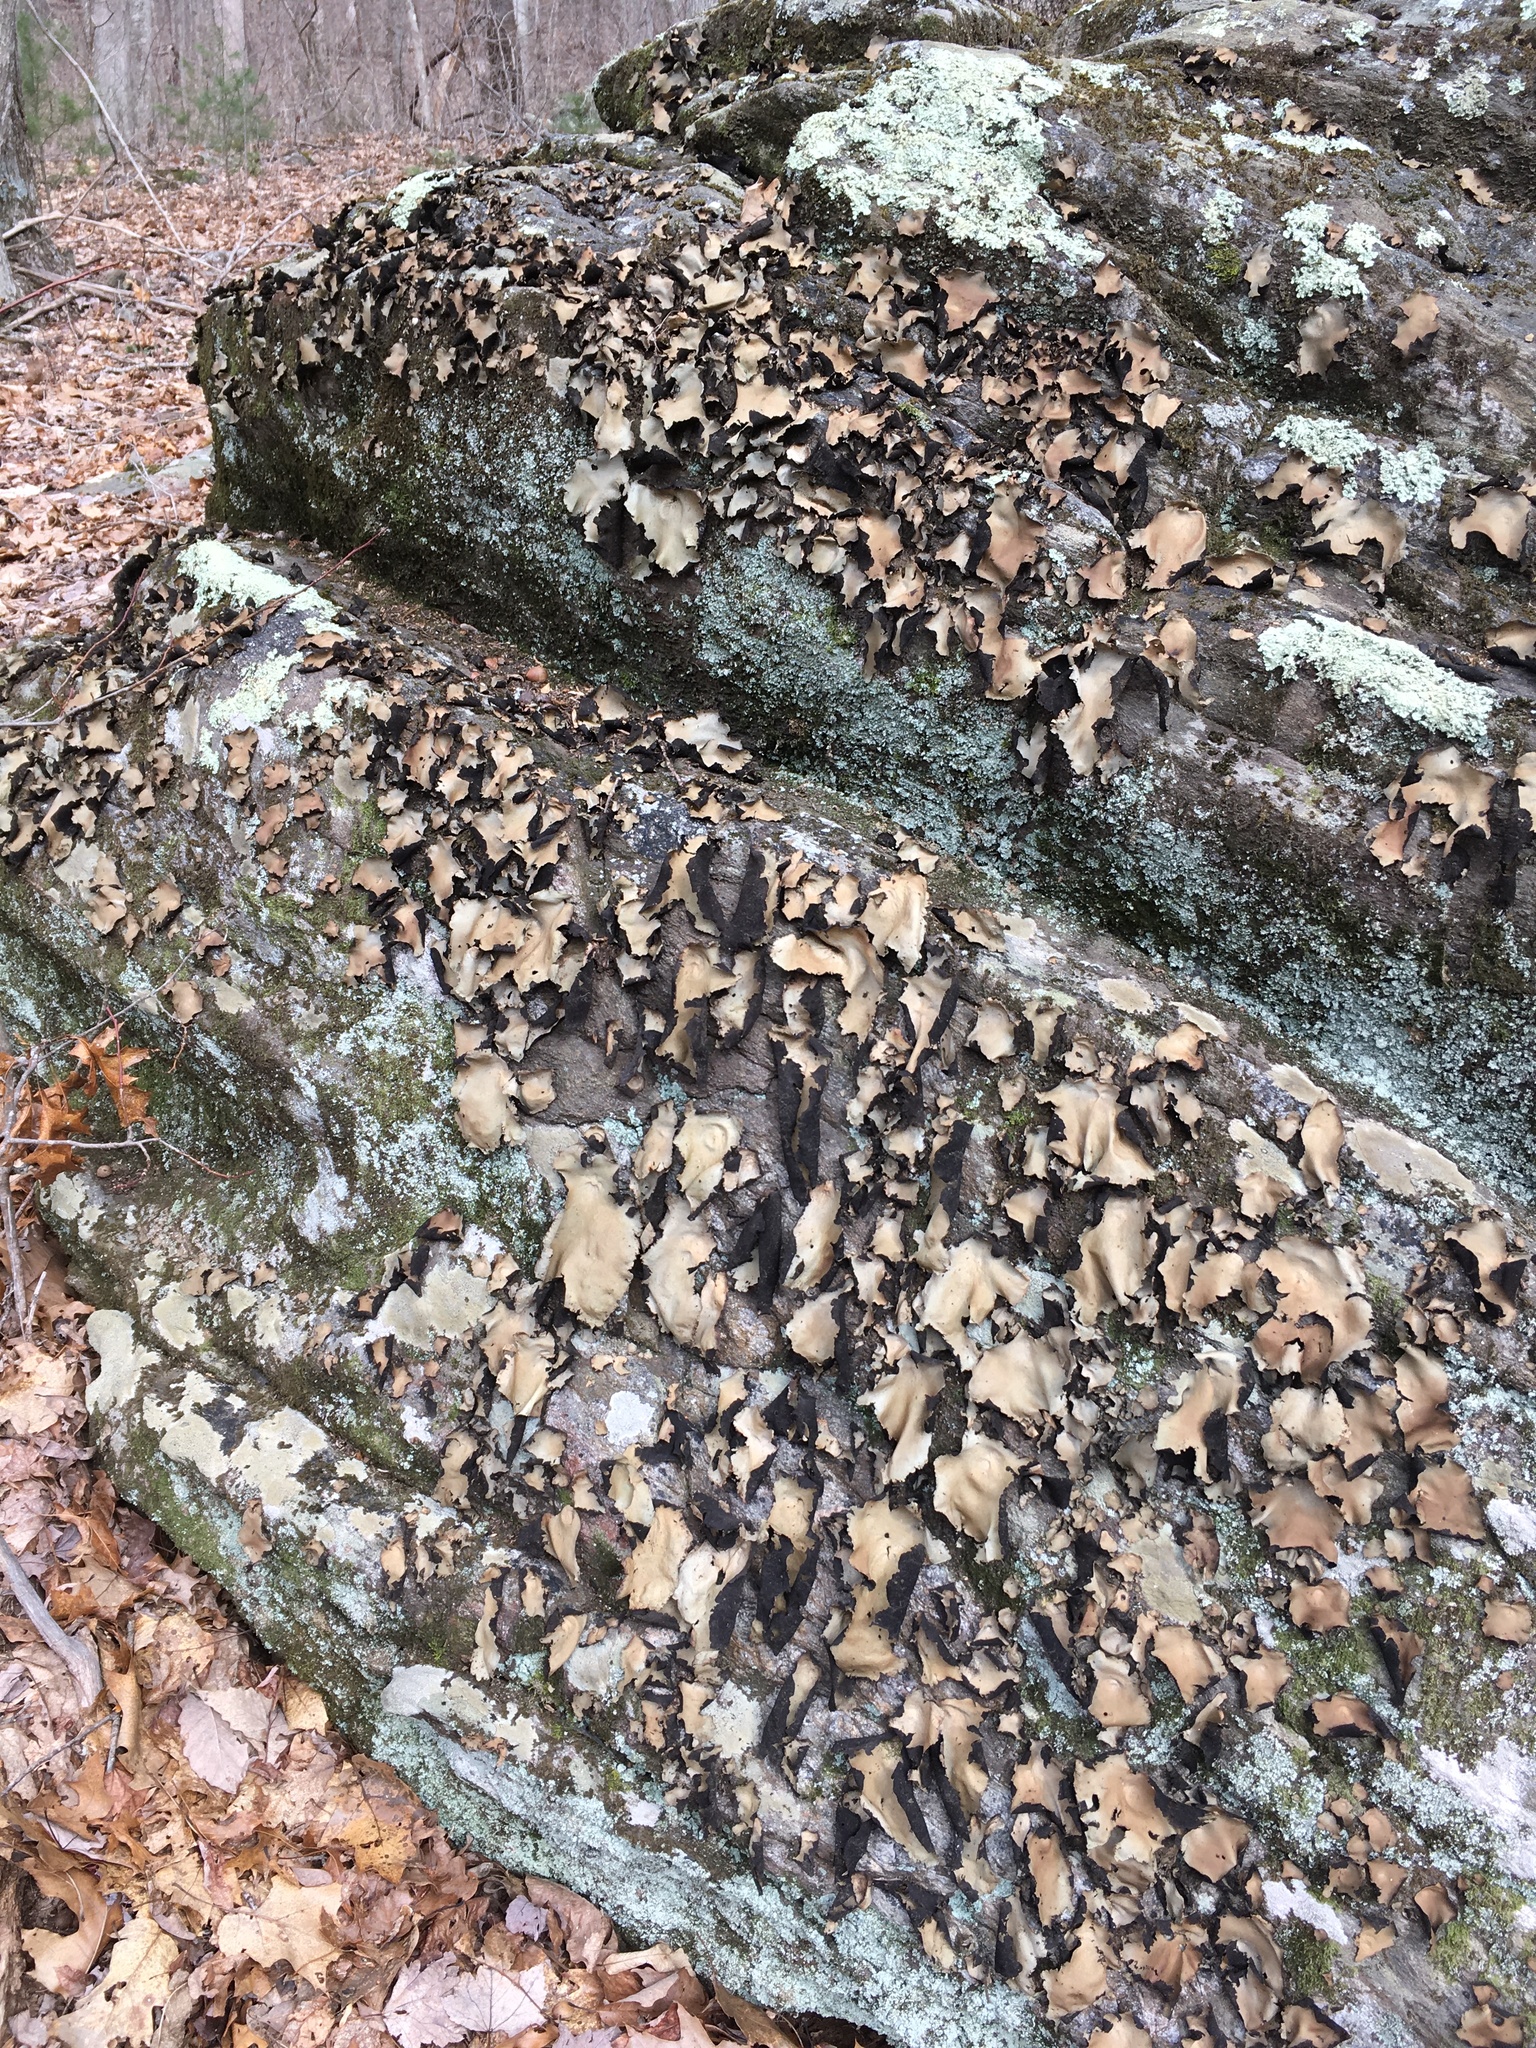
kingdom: Fungi
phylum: Ascomycota
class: Lecanoromycetes
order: Umbilicariales
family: Umbilicariaceae
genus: Umbilicaria
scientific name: Umbilicaria mammulata
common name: Smooth rock tripe
